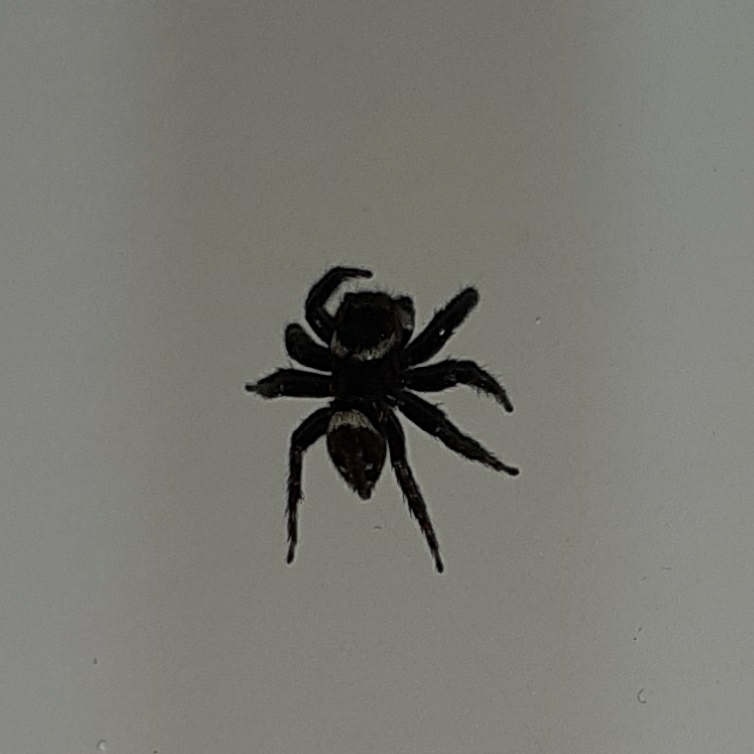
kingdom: Animalia
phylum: Arthropoda
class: Arachnida
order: Araneae
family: Salticidae
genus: Hasarius
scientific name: Hasarius adansoni
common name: Jumping spider
